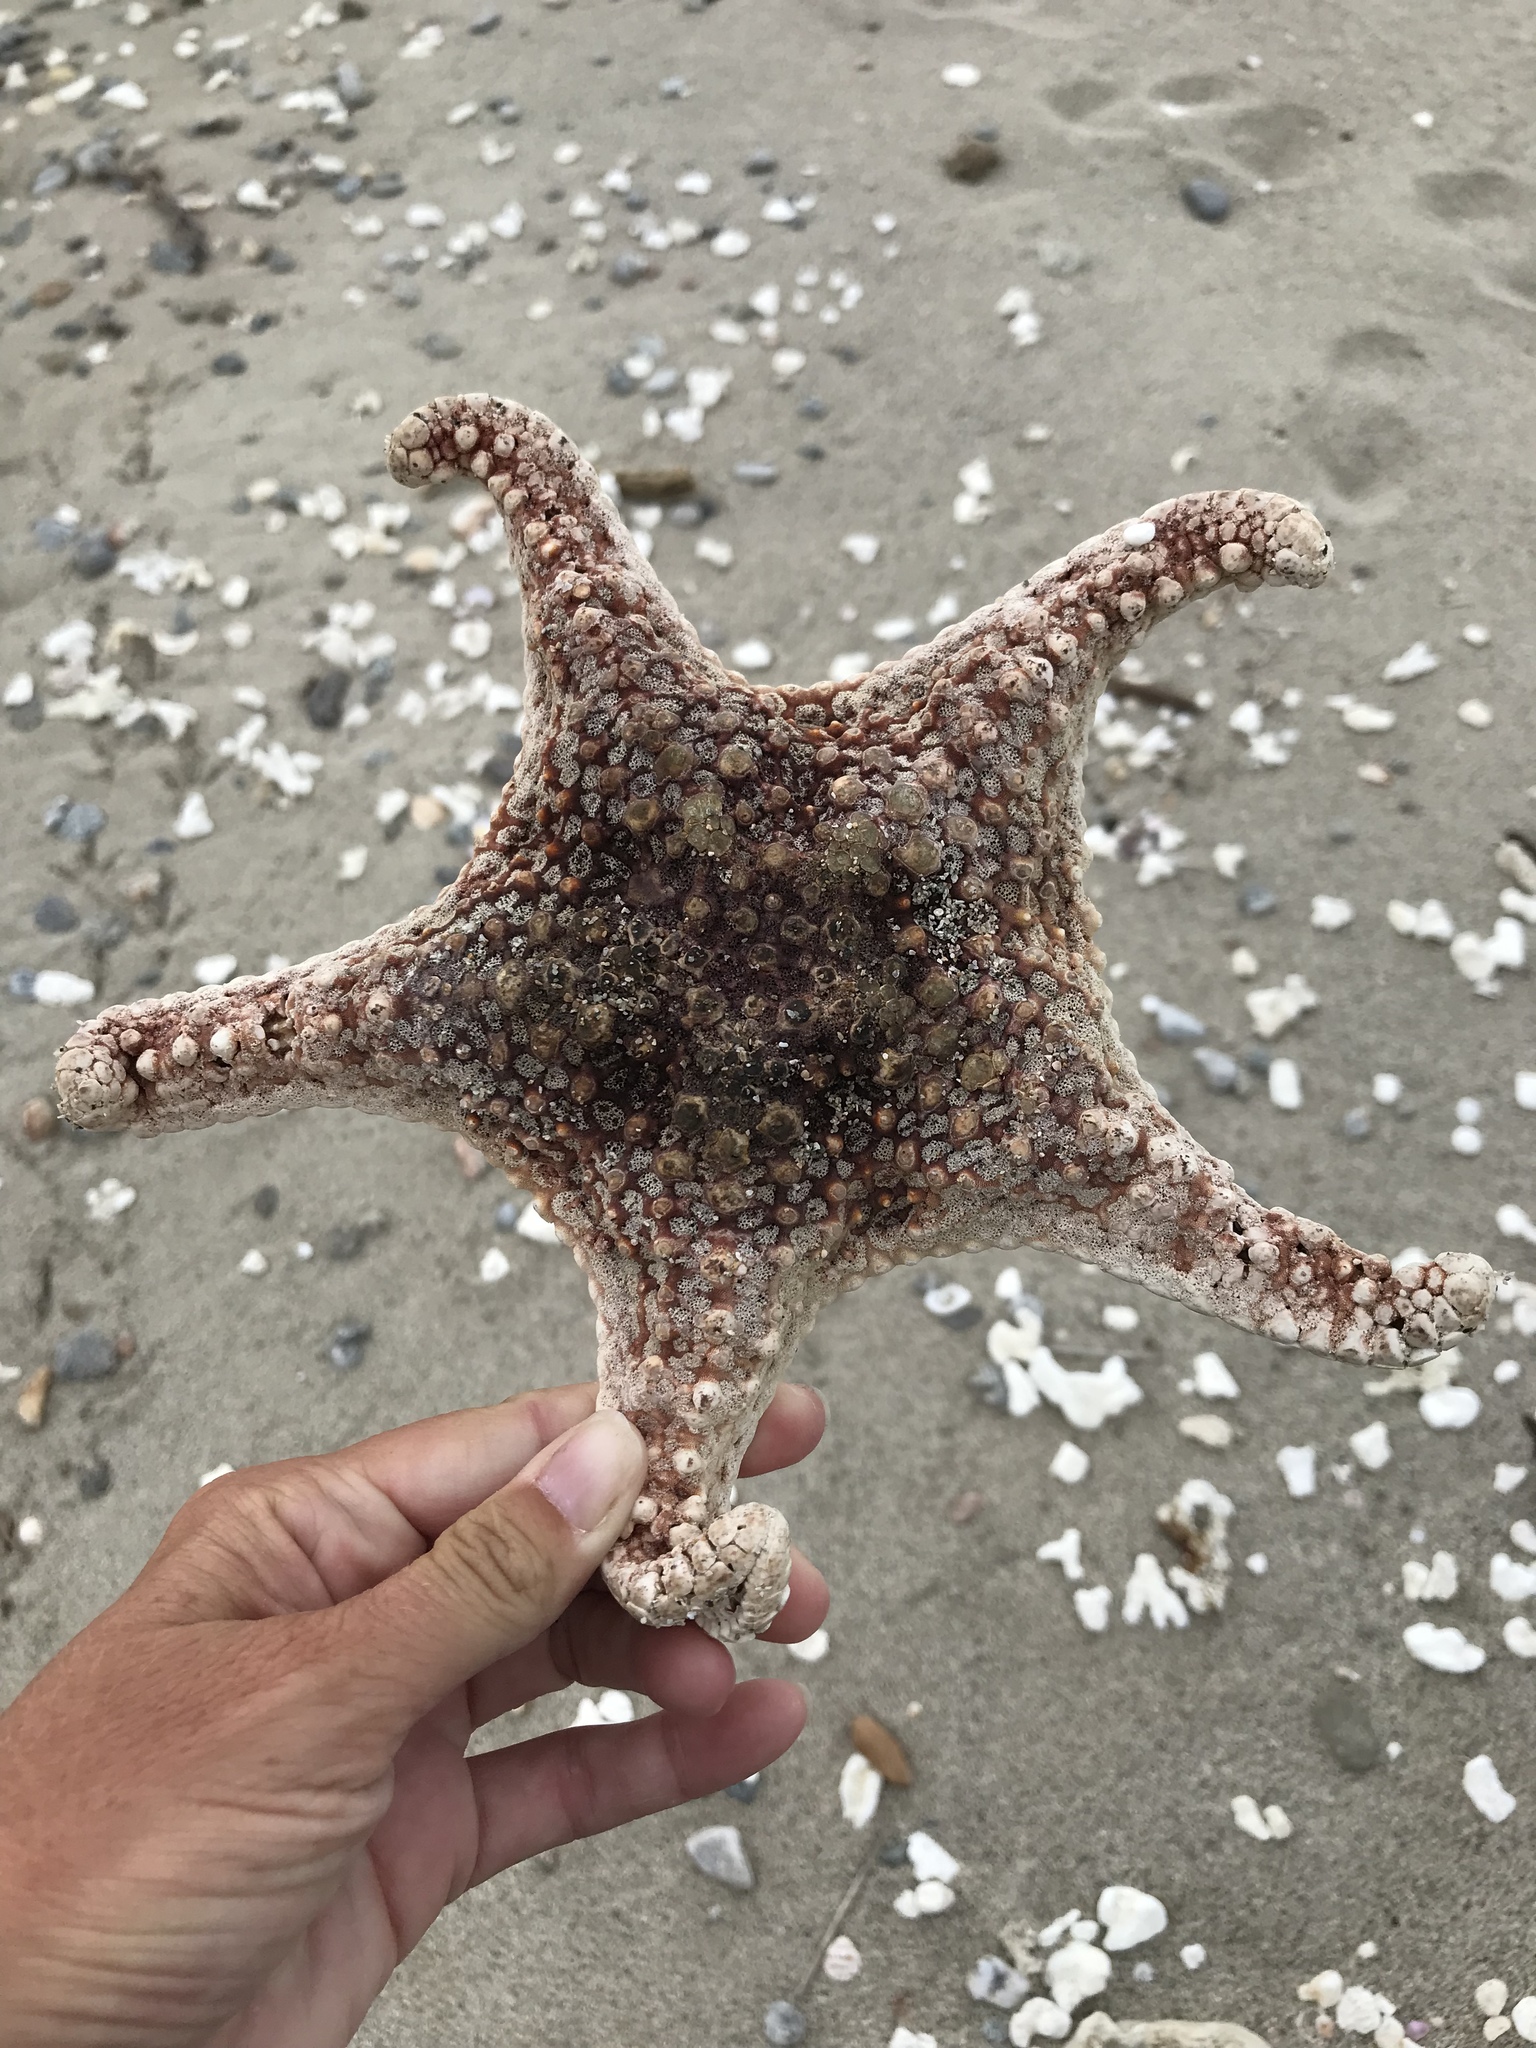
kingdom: Animalia
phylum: Echinodermata
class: Asteroidea
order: Valvatida
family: Oreasteridae
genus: Pentaceraster
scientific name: Pentaceraster cumingi
